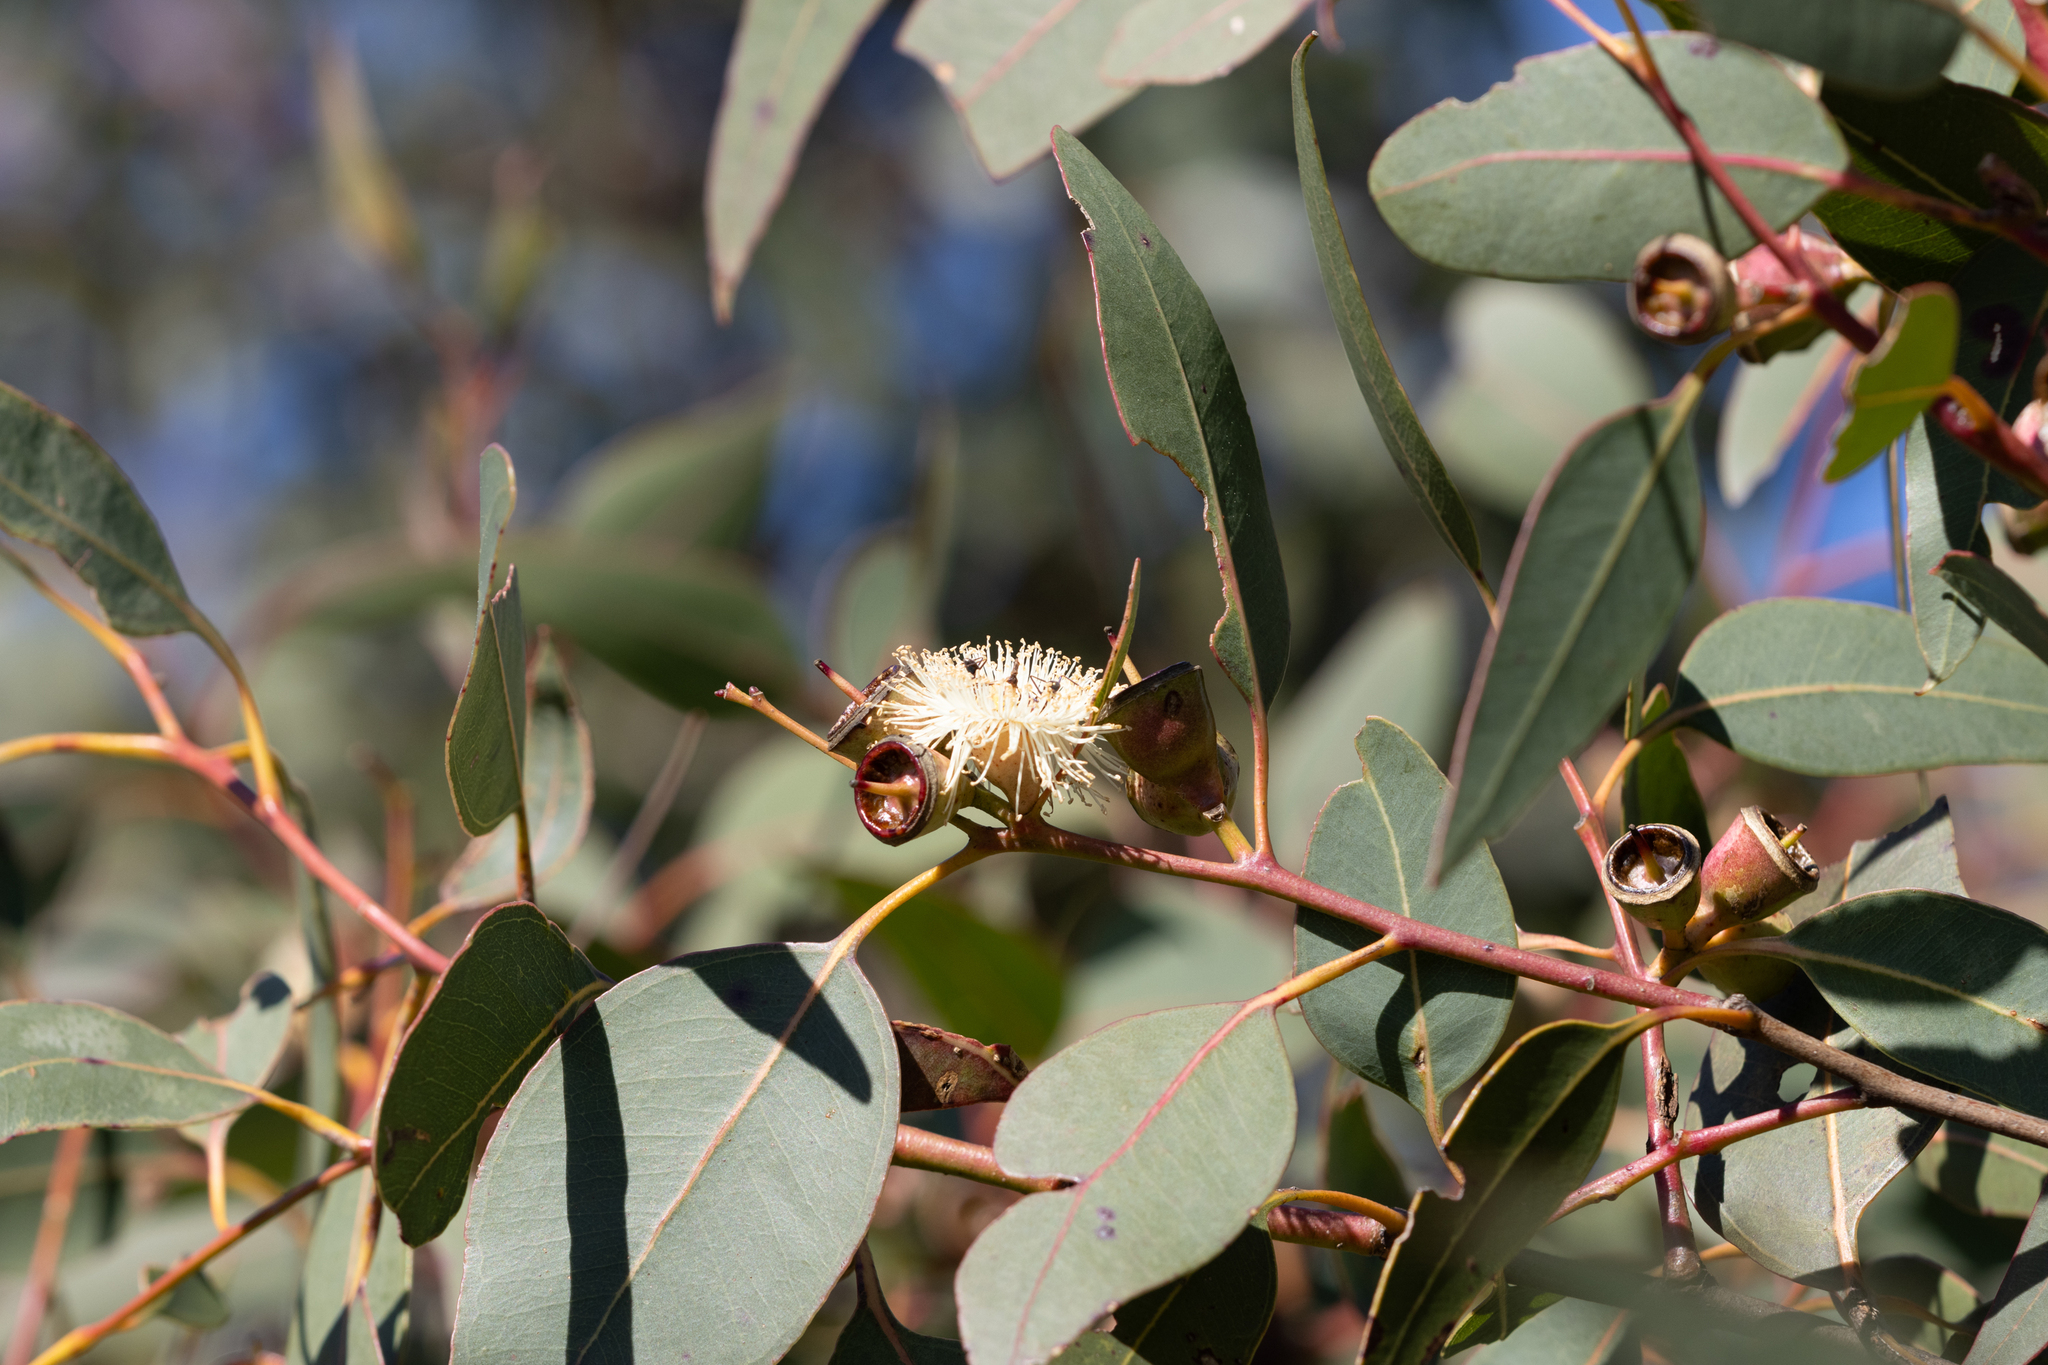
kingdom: Plantae
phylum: Tracheophyta
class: Magnoliopsida
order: Myrtales
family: Myrtaceae
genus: Eucalyptus
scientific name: Eucalyptus cosmophylla
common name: Bog-gum
